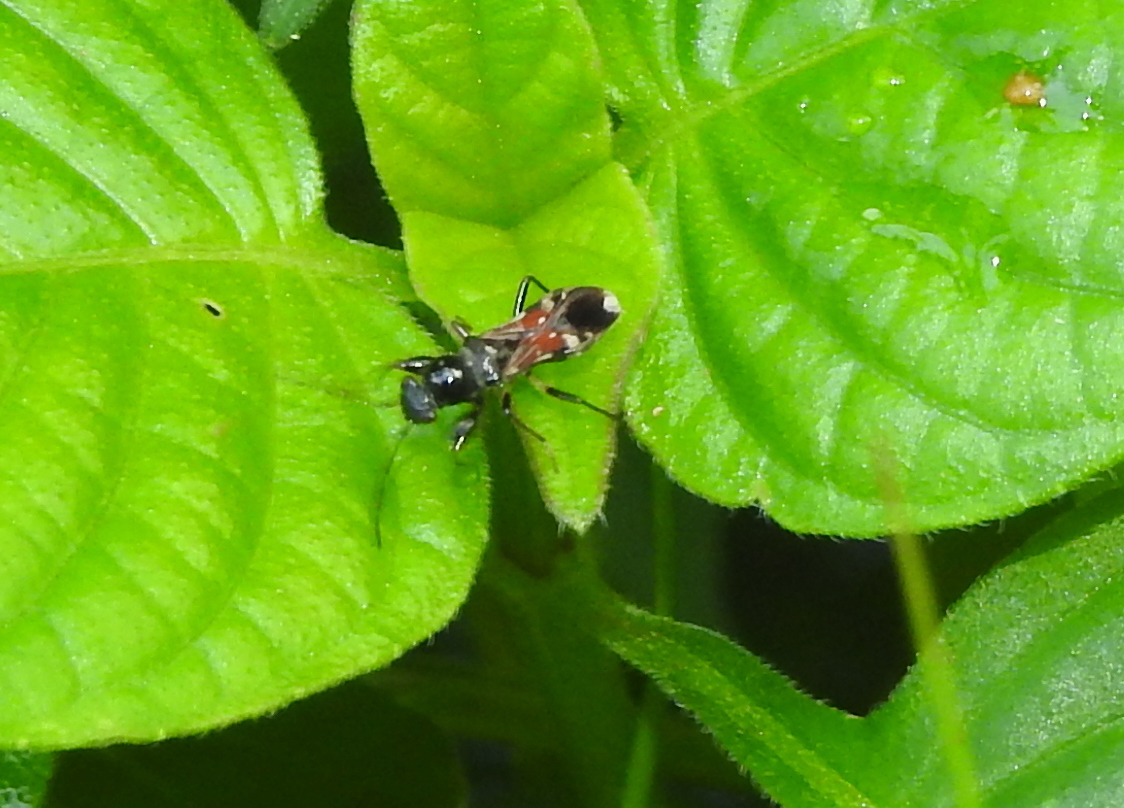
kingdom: Animalia
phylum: Arthropoda
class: Insecta
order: Hemiptera
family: Rhyparochromidae
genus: Caridops
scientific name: Caridops globicollis
